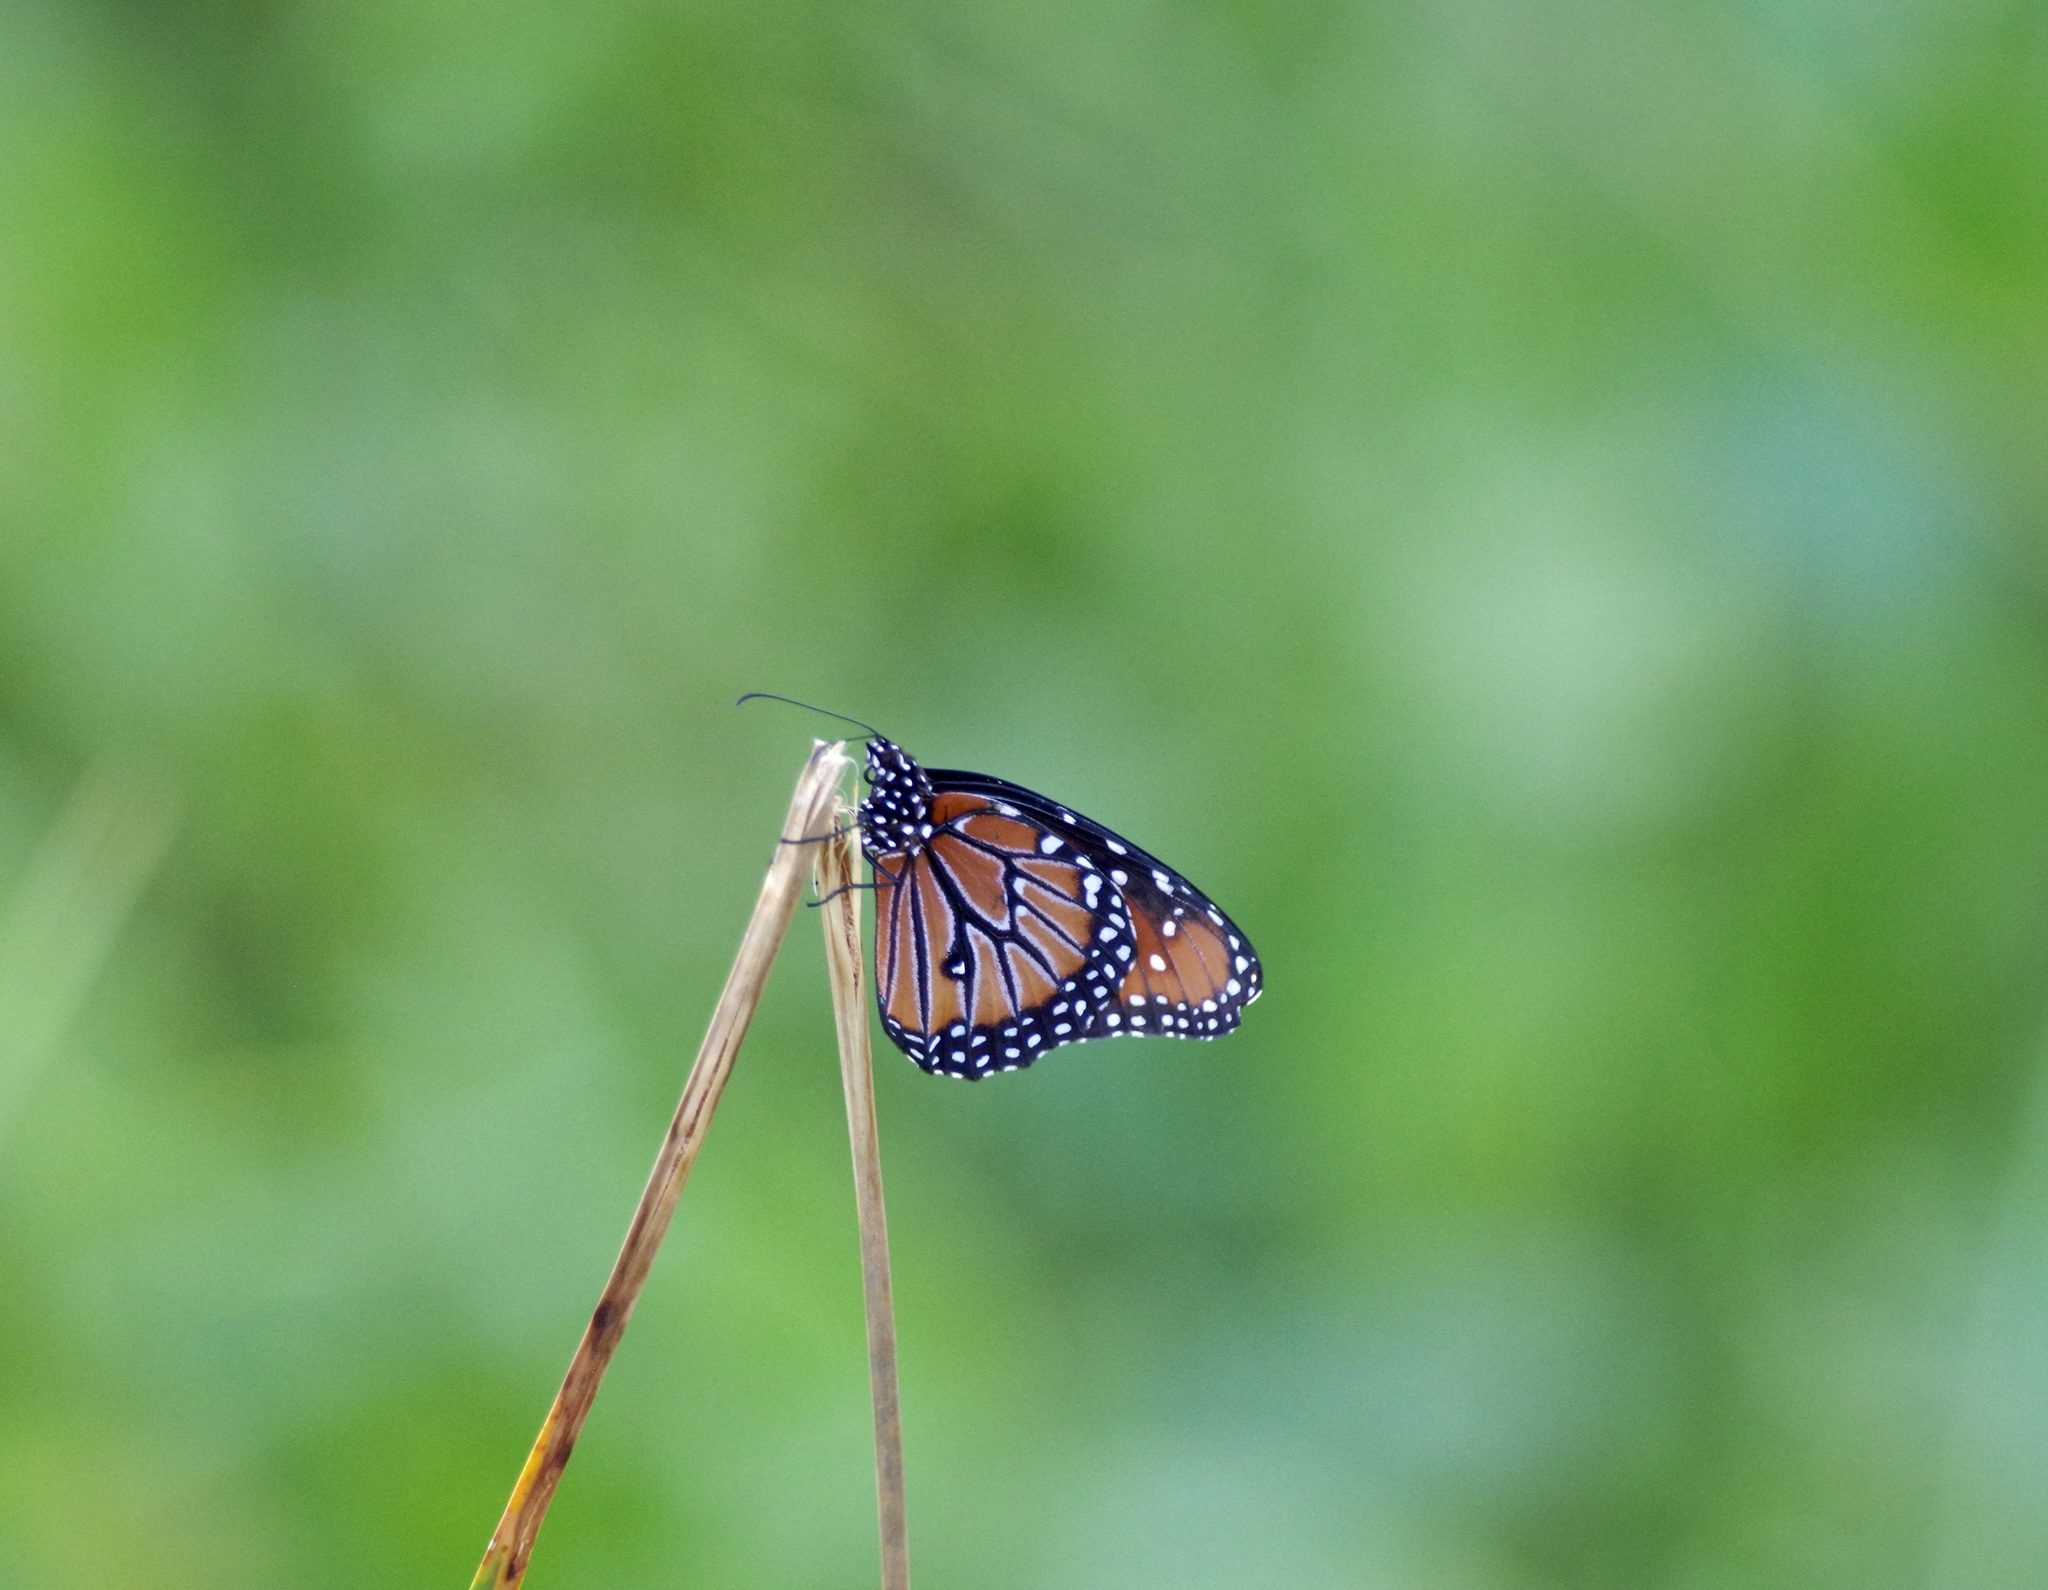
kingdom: Animalia
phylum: Arthropoda
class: Insecta
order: Lepidoptera
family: Nymphalidae
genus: Danaus
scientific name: Danaus gilippus
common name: Queen
